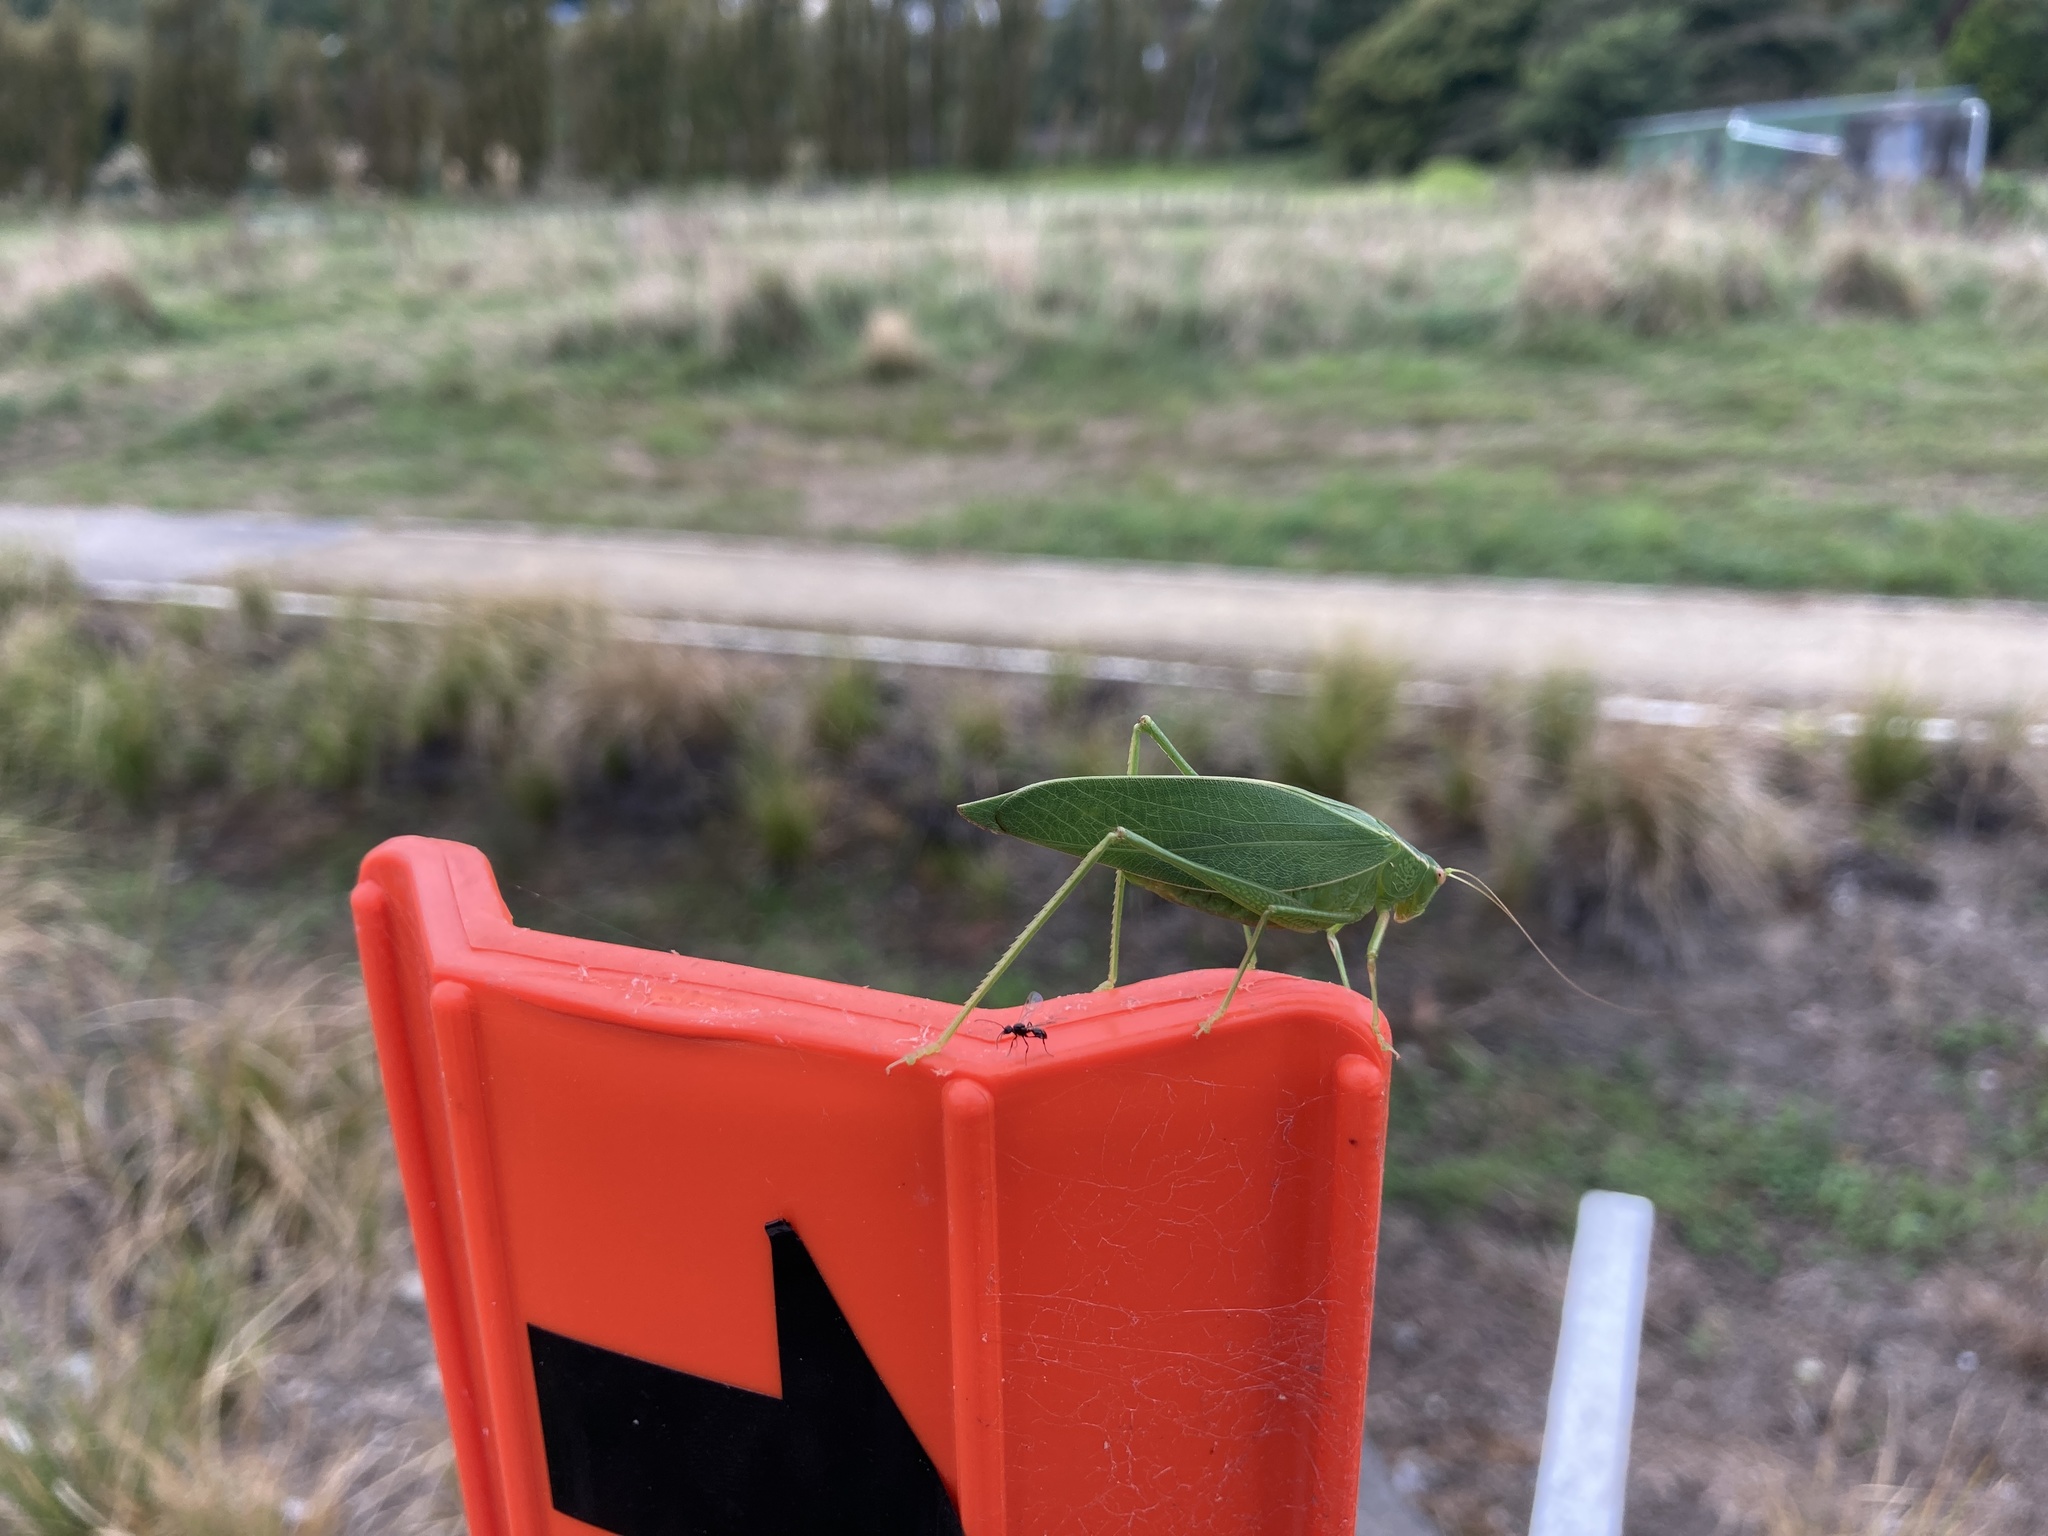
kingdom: Animalia
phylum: Arthropoda
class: Insecta
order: Orthoptera
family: Tettigoniidae
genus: Caedicia
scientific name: Caedicia simplex
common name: Common garden katydid
